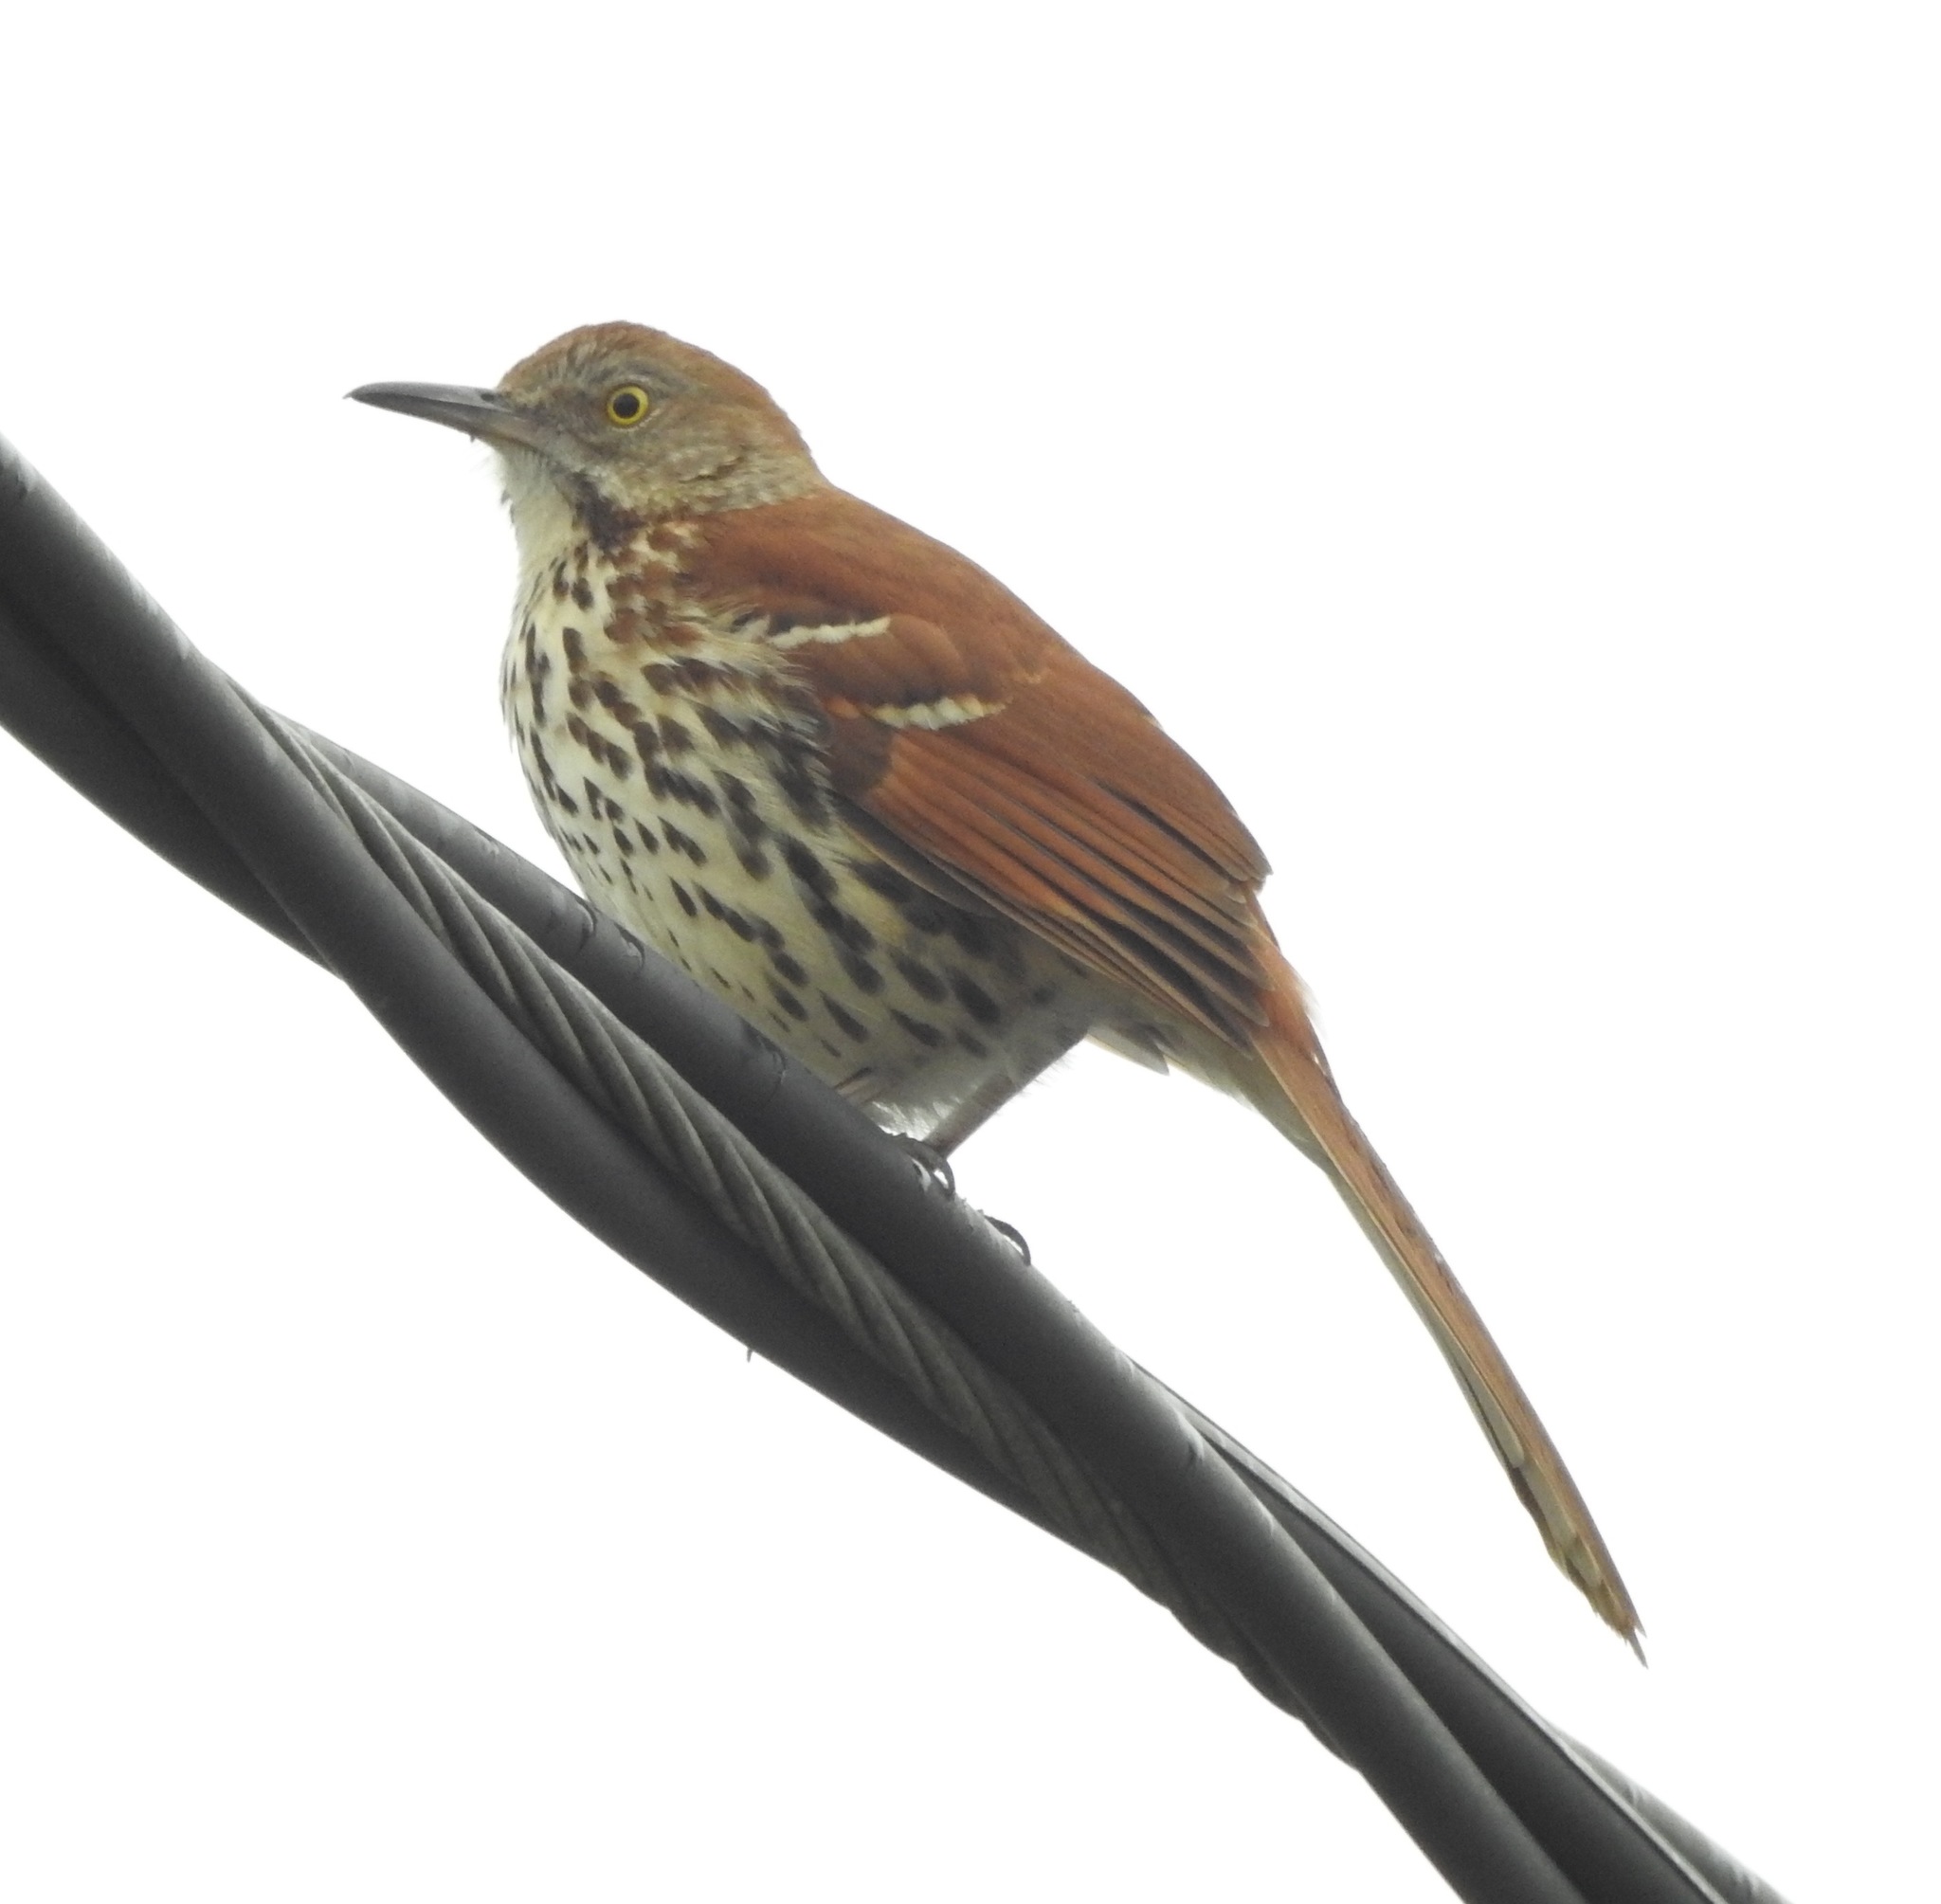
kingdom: Animalia
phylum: Chordata
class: Aves
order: Passeriformes
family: Mimidae
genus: Toxostoma
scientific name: Toxostoma rufum
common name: Brown thrasher
